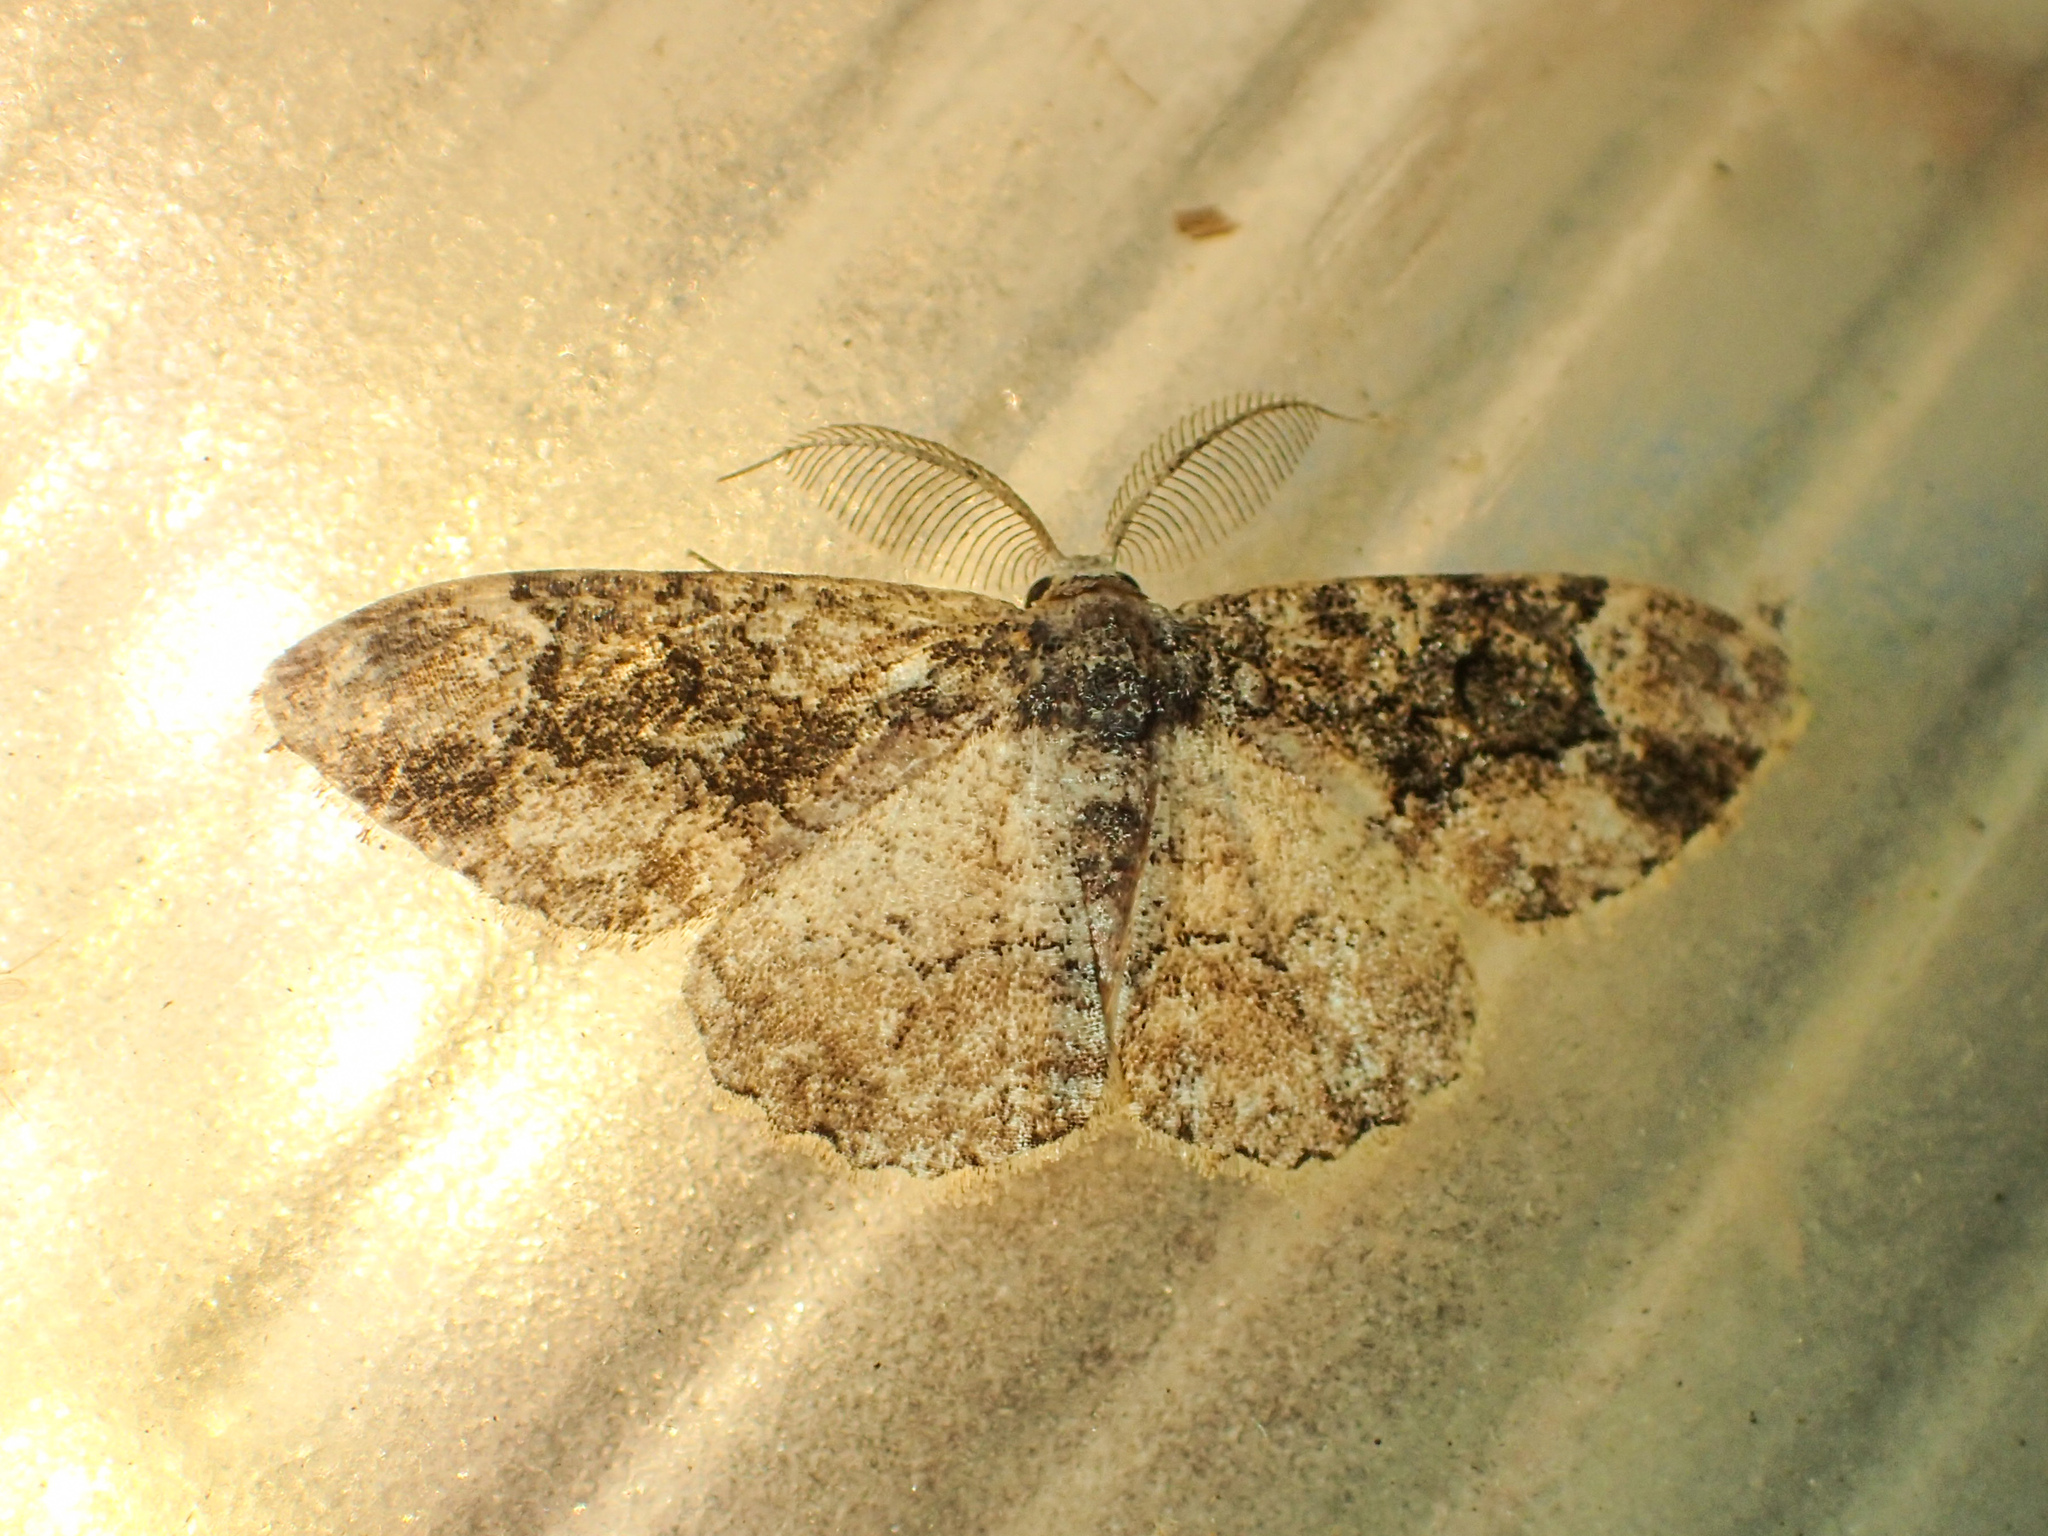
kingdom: Animalia
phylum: Arthropoda
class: Insecta
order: Lepidoptera
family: Geometridae
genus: Parapholodes
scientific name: Parapholodes
